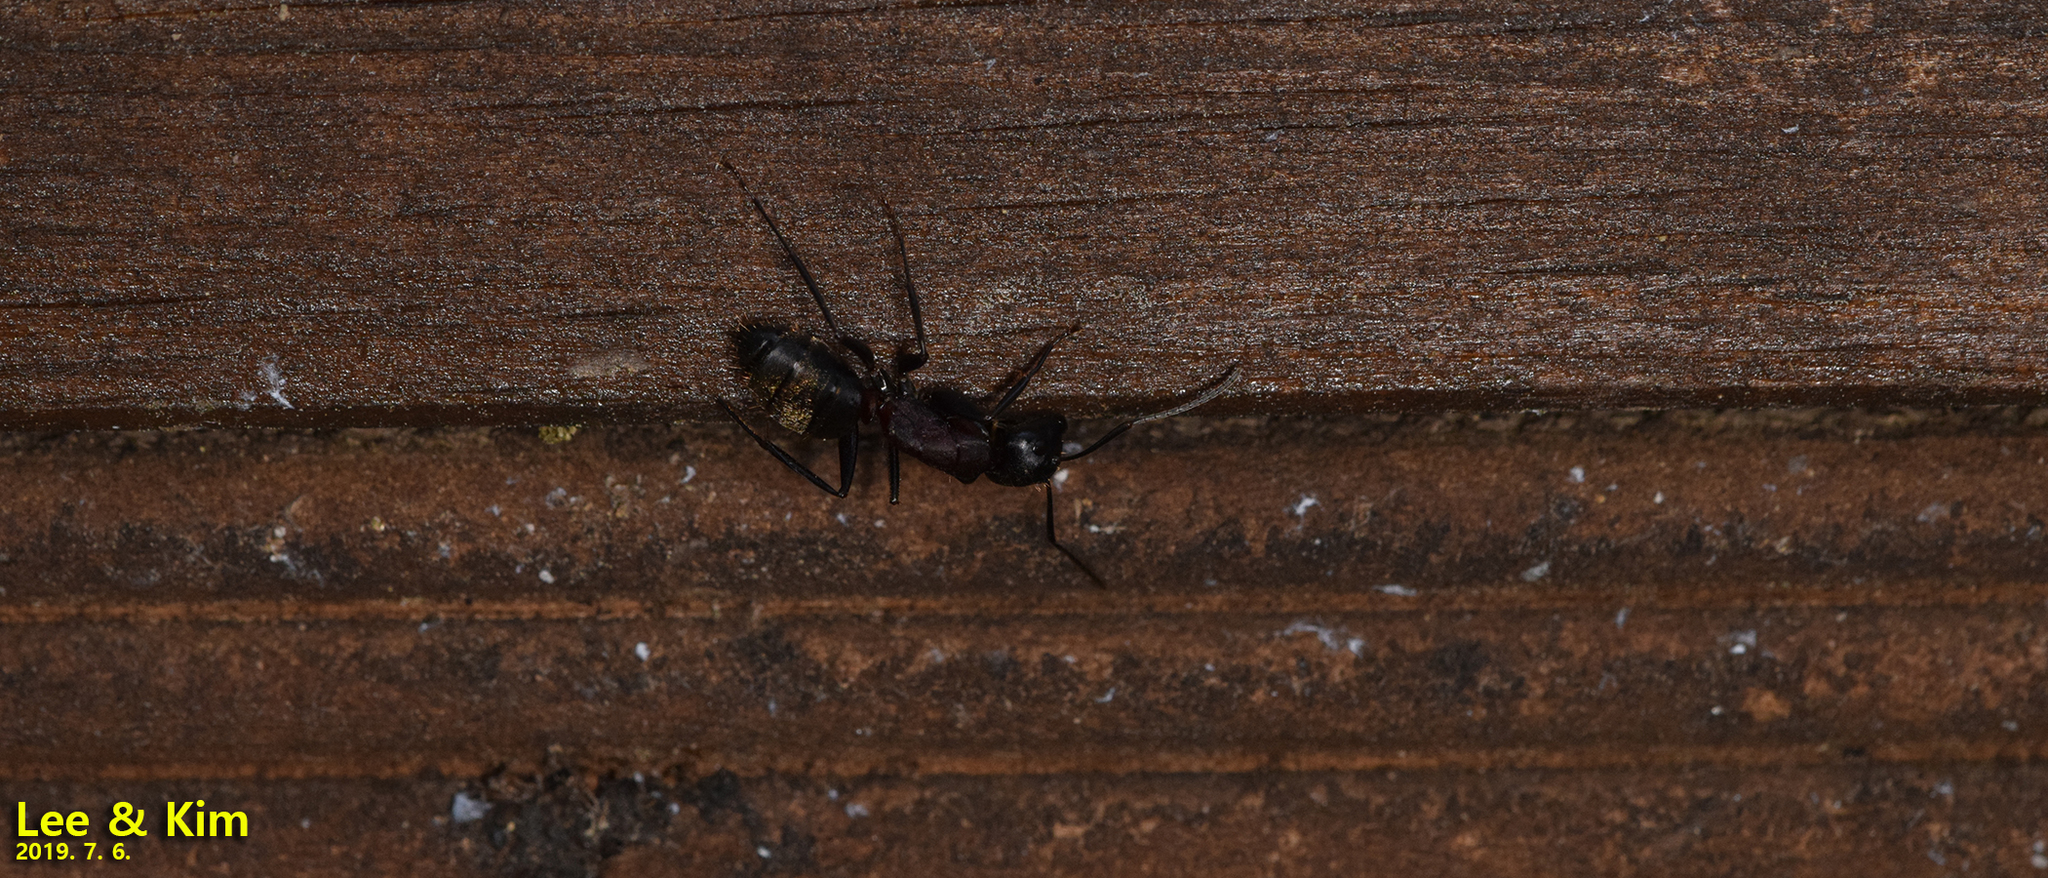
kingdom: Animalia
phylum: Arthropoda
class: Insecta
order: Hymenoptera
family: Formicidae
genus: Camponotus
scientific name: Camponotus atrox
